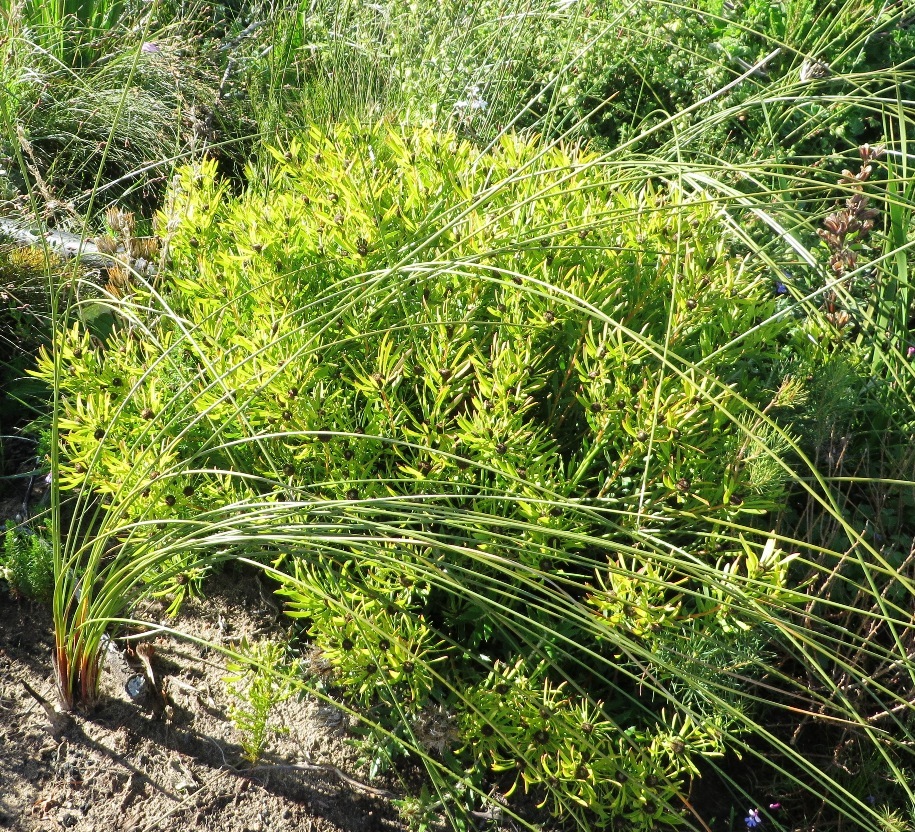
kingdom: Plantae
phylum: Tracheophyta
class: Magnoliopsida
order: Proteales
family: Proteaceae
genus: Leucadendron
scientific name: Leucadendron salignum
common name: Common sunshine conebush
